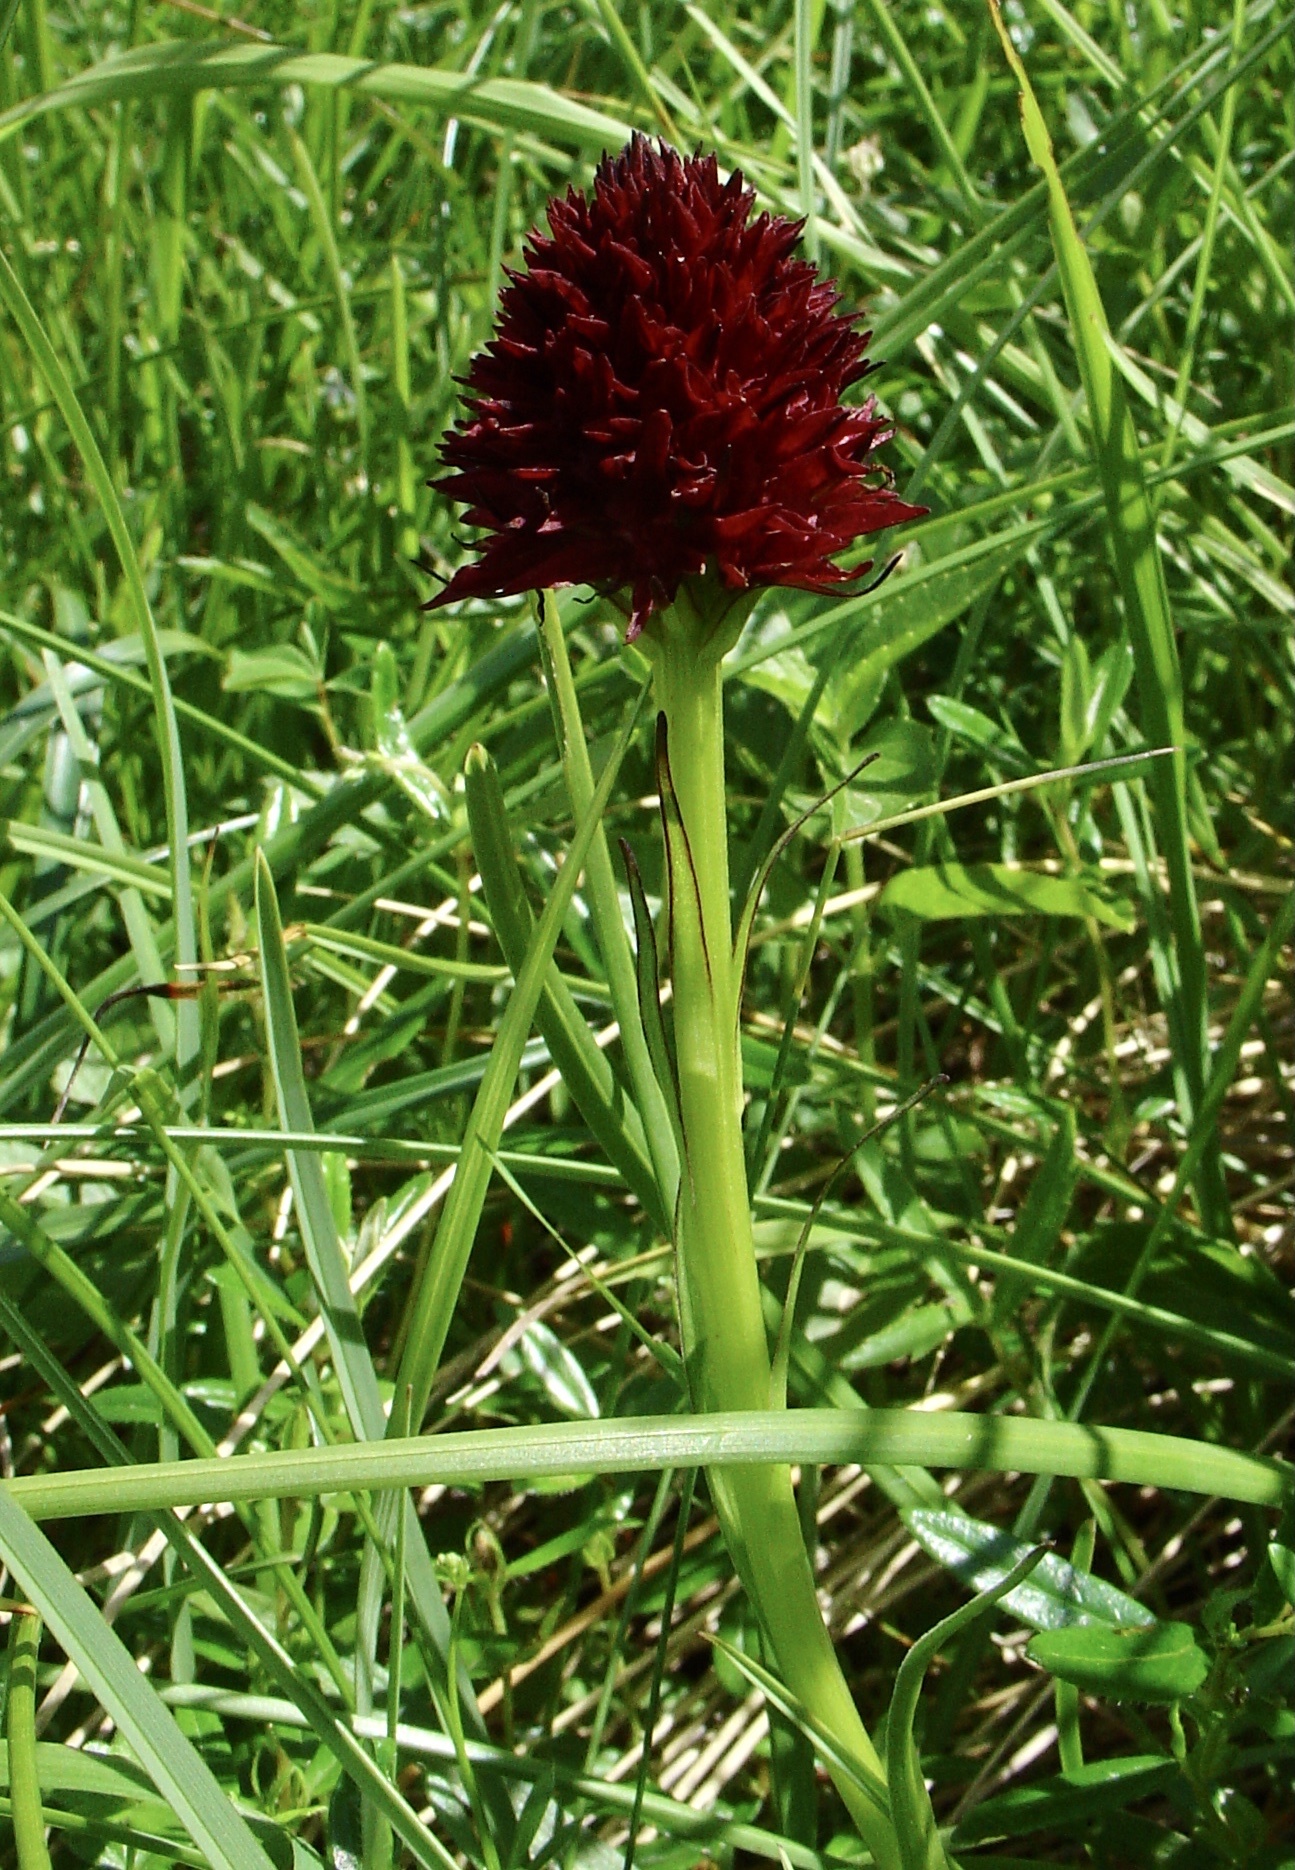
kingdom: Plantae
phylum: Tracheophyta
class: Liliopsida
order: Asparagales
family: Orchidaceae
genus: Gymnadenia
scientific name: Gymnadenia gabasiana
